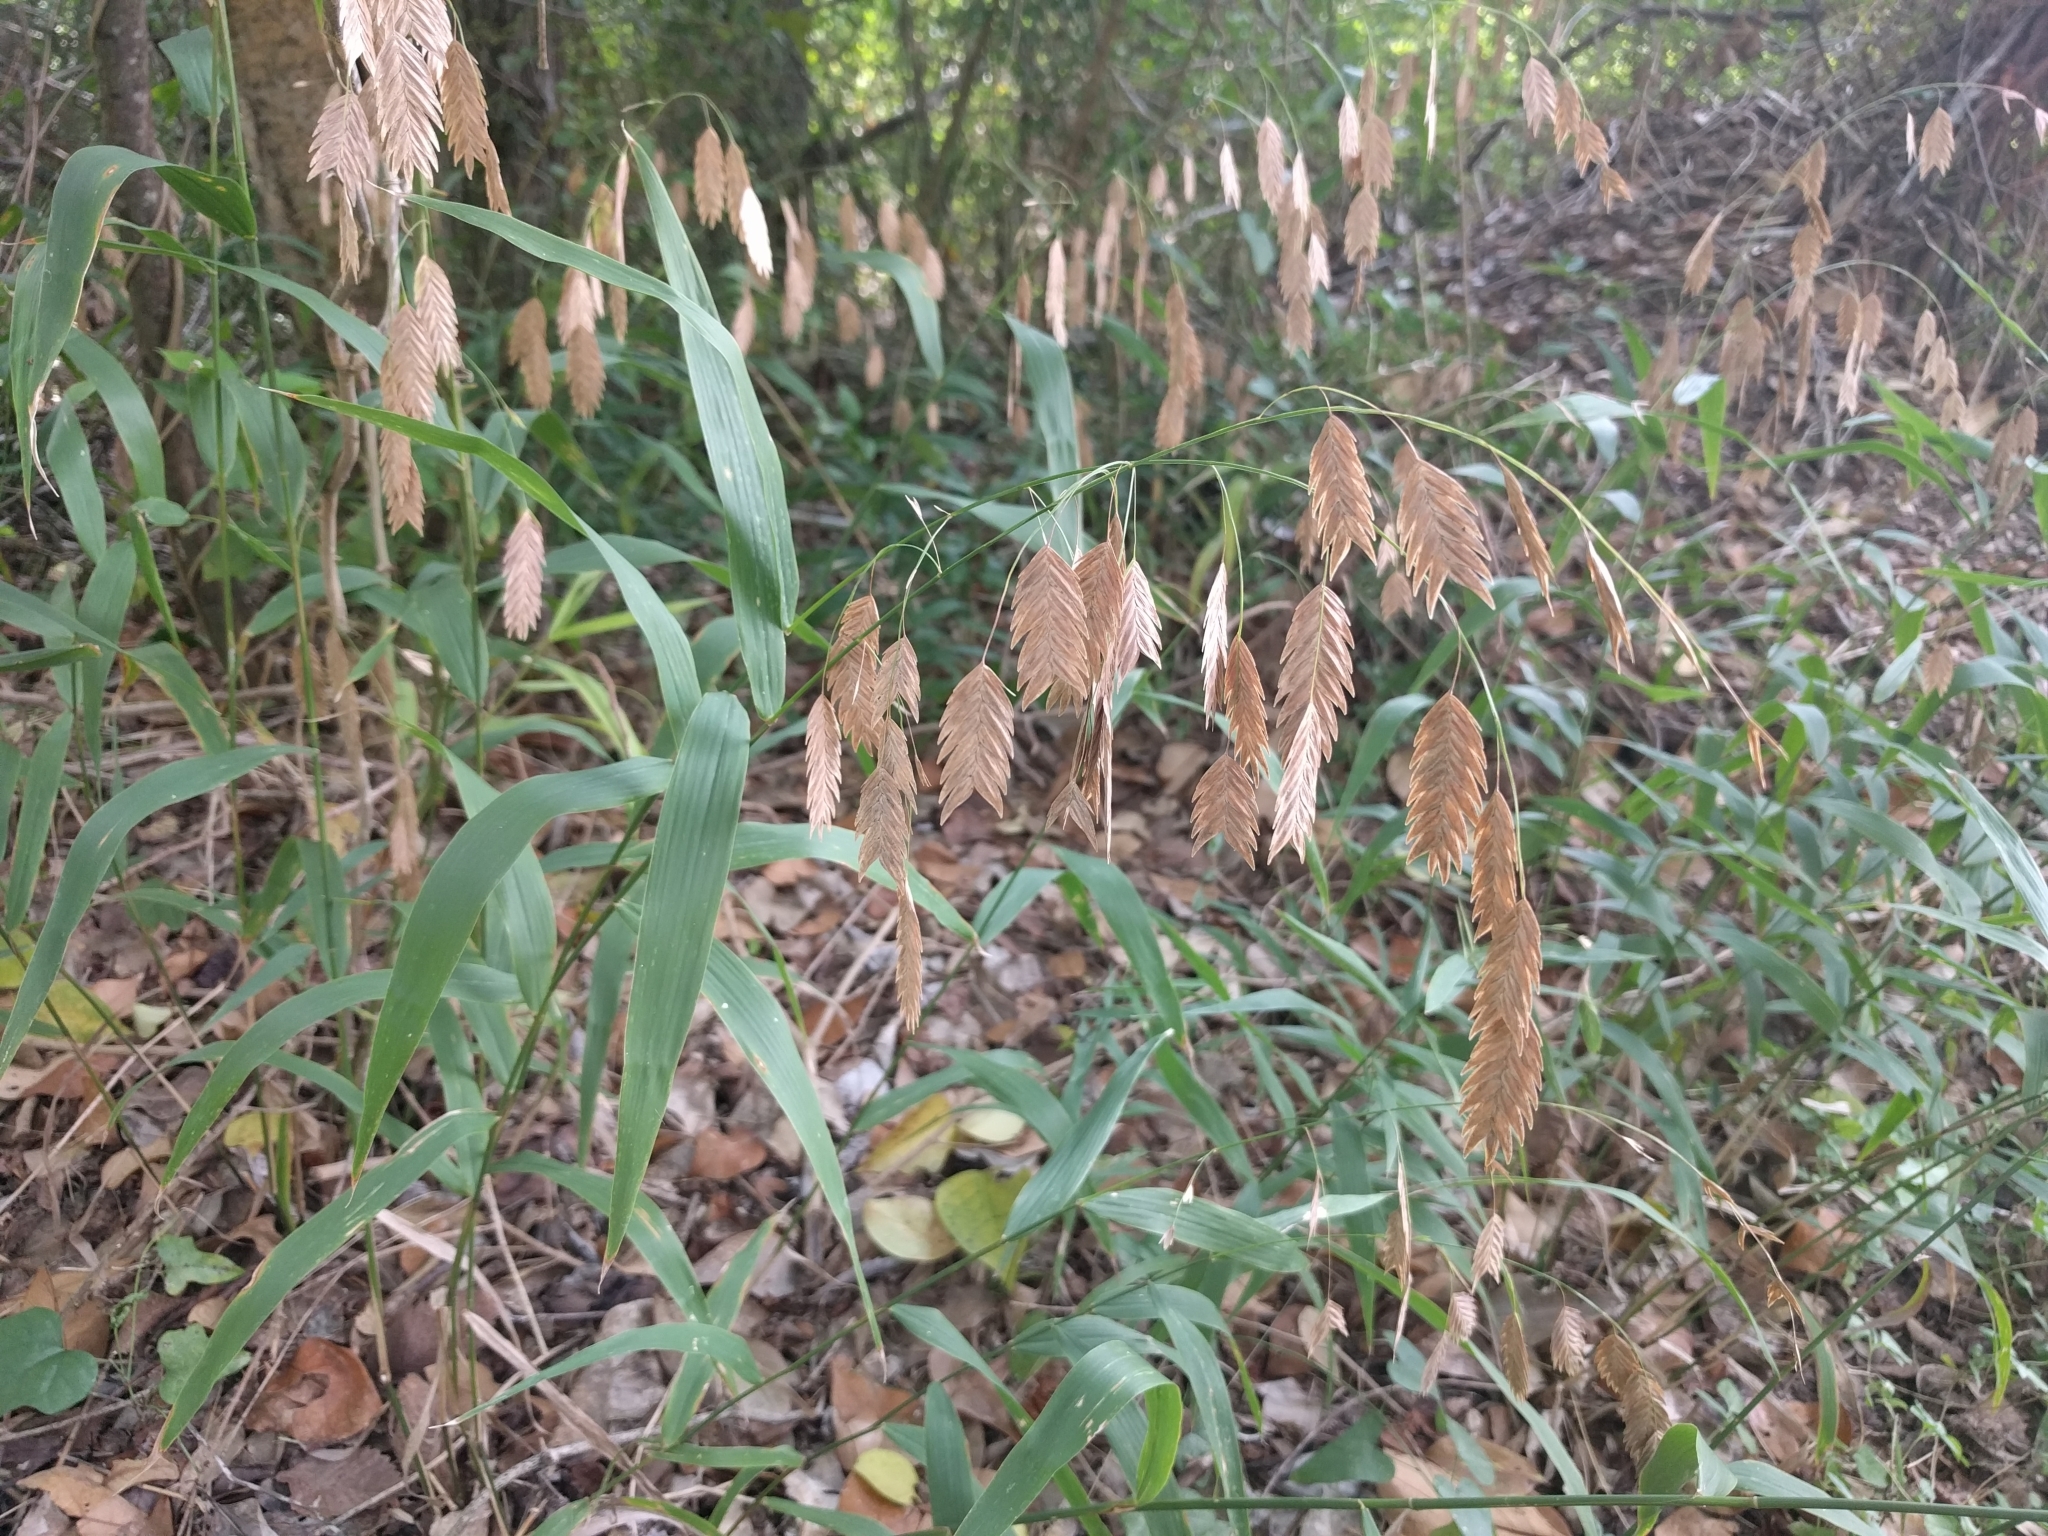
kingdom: Plantae
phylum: Tracheophyta
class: Liliopsida
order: Poales
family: Poaceae
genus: Chasmanthium
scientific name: Chasmanthium latifolium
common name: Broad-leaved chasmanthium
